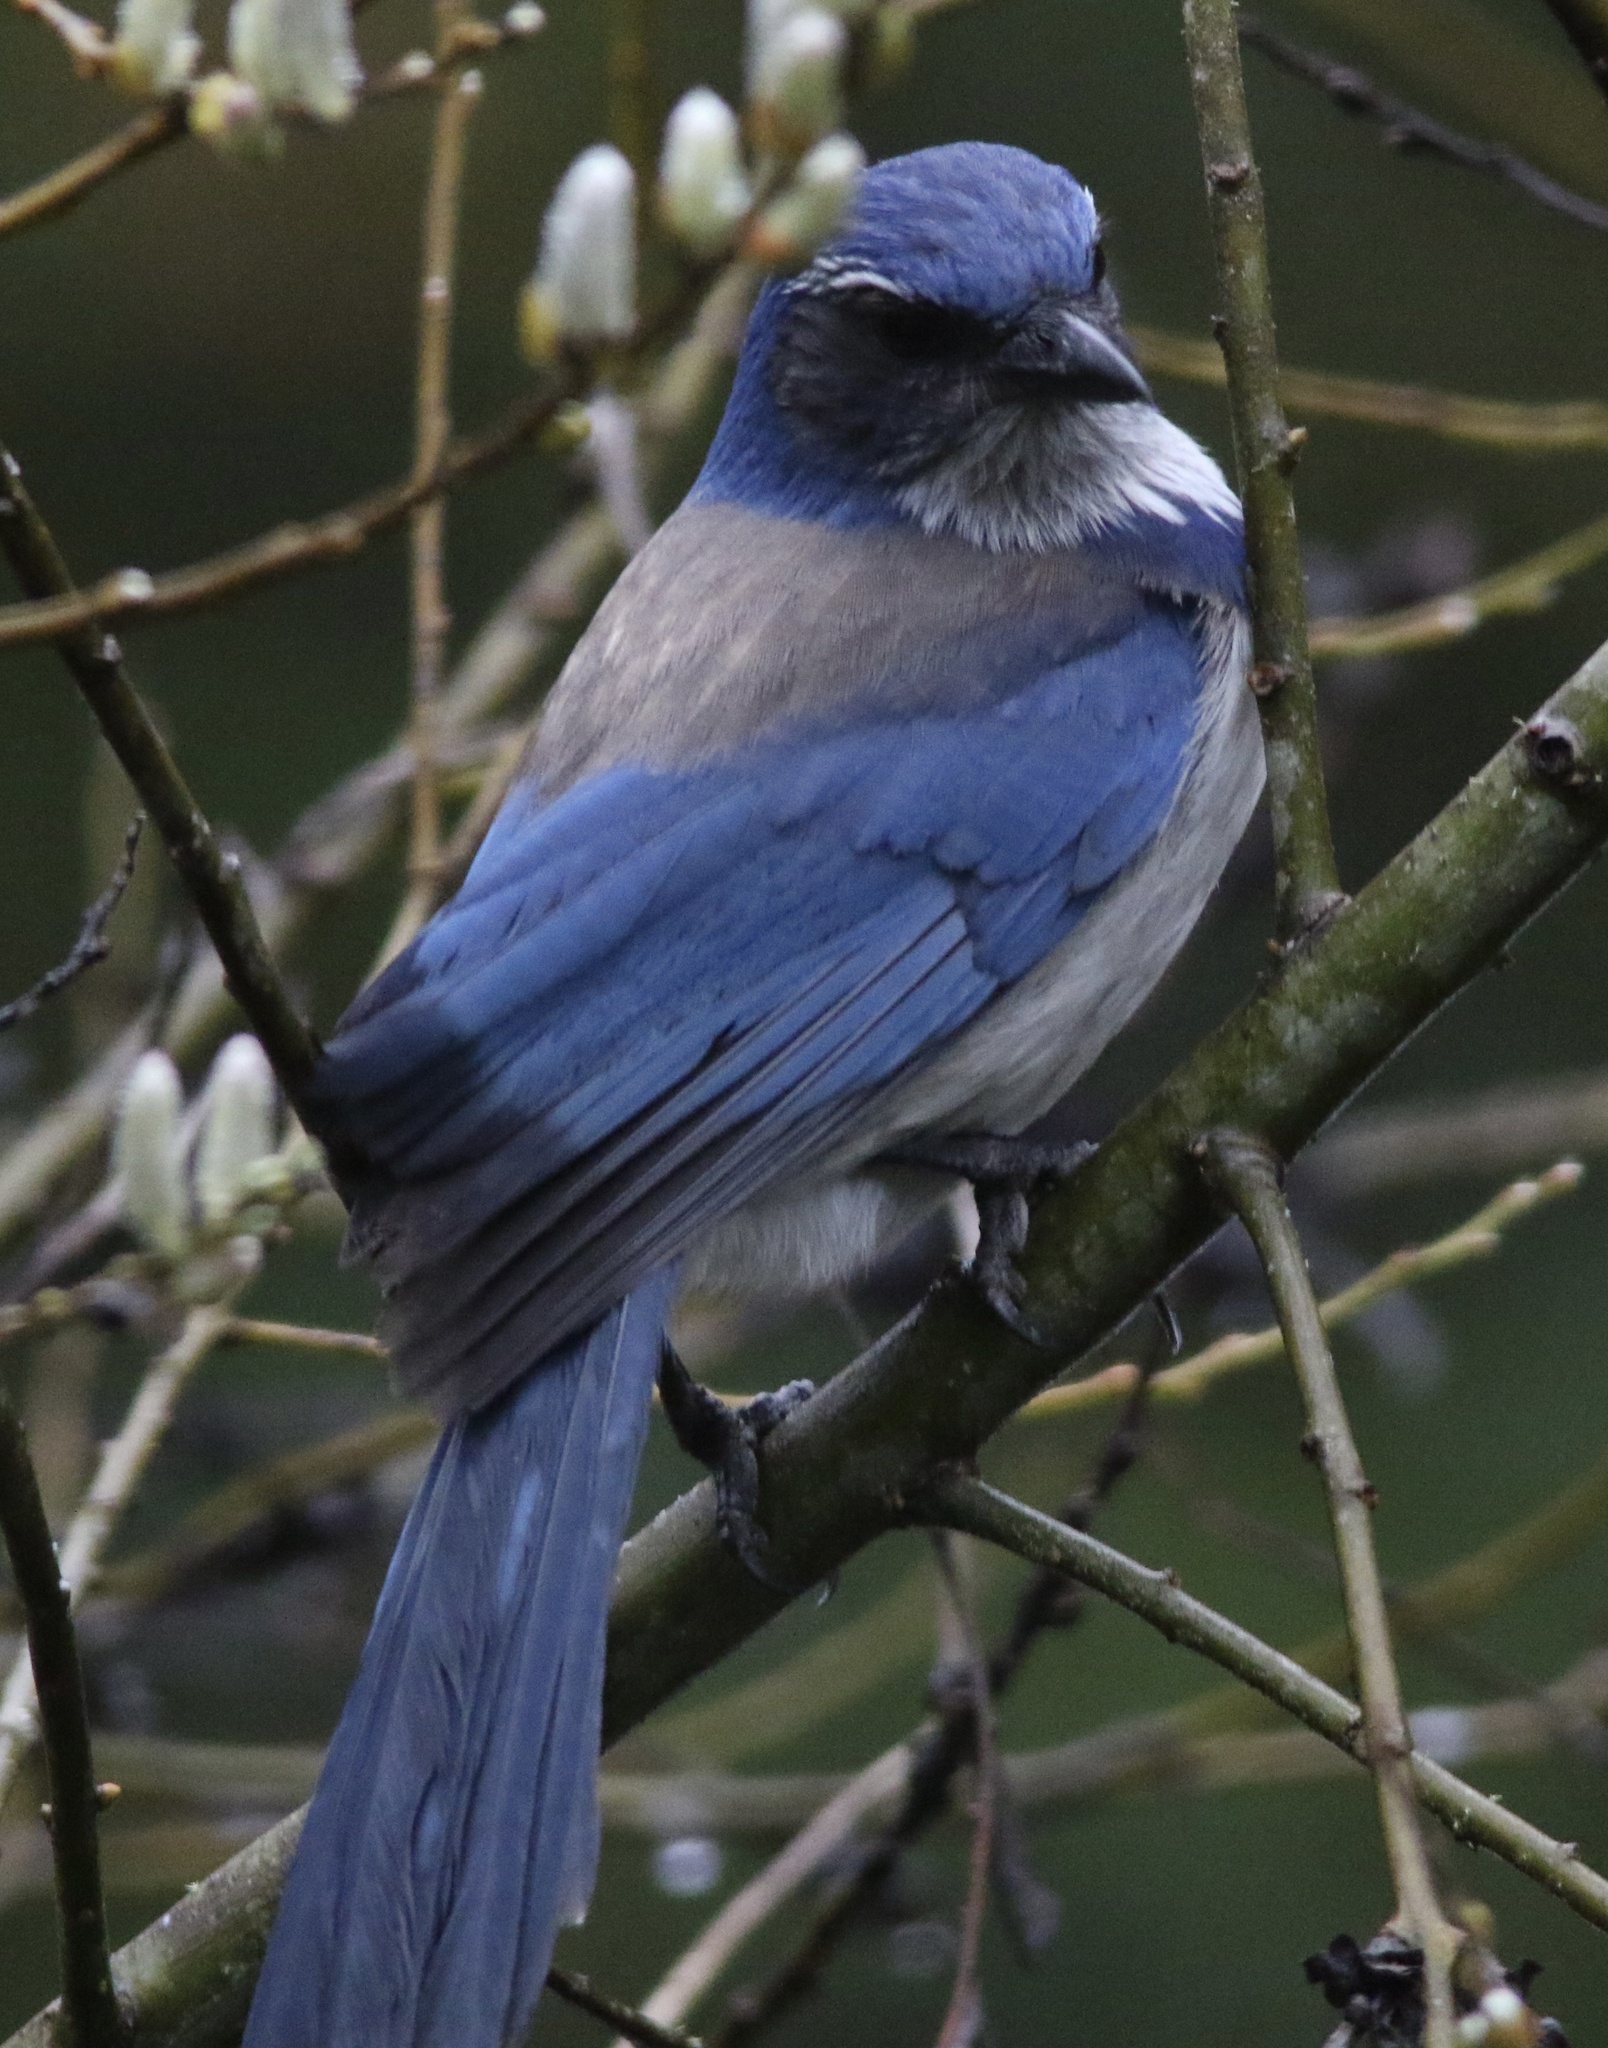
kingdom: Animalia
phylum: Chordata
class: Aves
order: Passeriformes
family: Corvidae
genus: Aphelocoma
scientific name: Aphelocoma californica
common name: California scrub-jay
